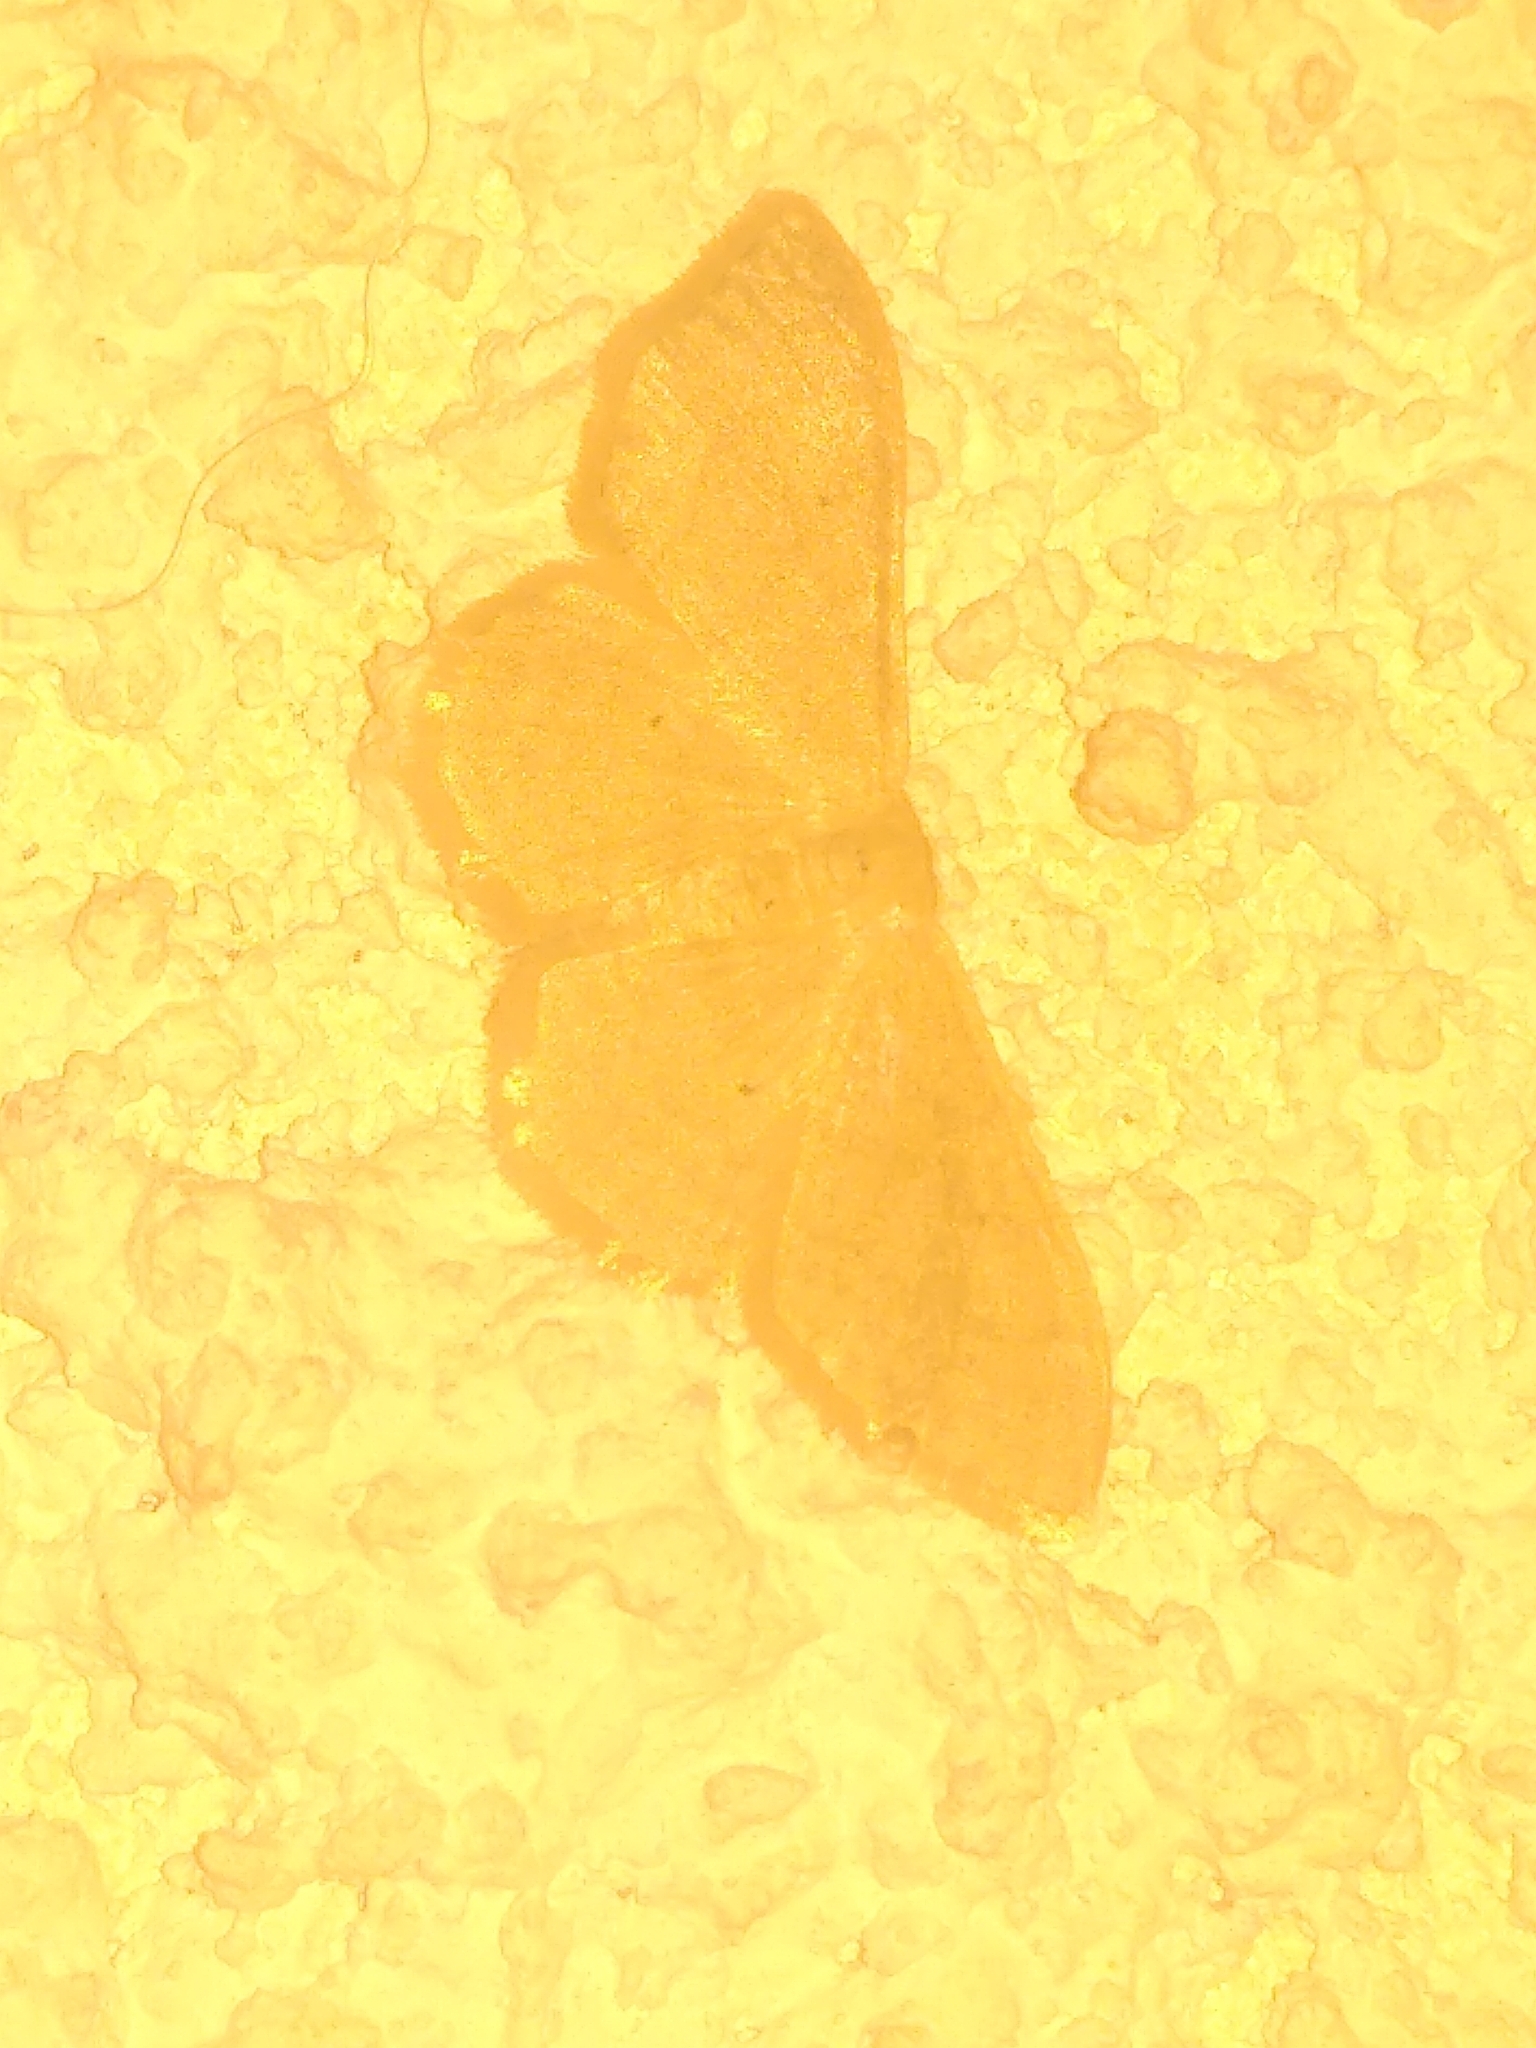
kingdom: Animalia
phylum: Arthropoda
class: Insecta
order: Lepidoptera
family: Geometridae
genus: Idaea
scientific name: Idaea straminata
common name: Plain wave
